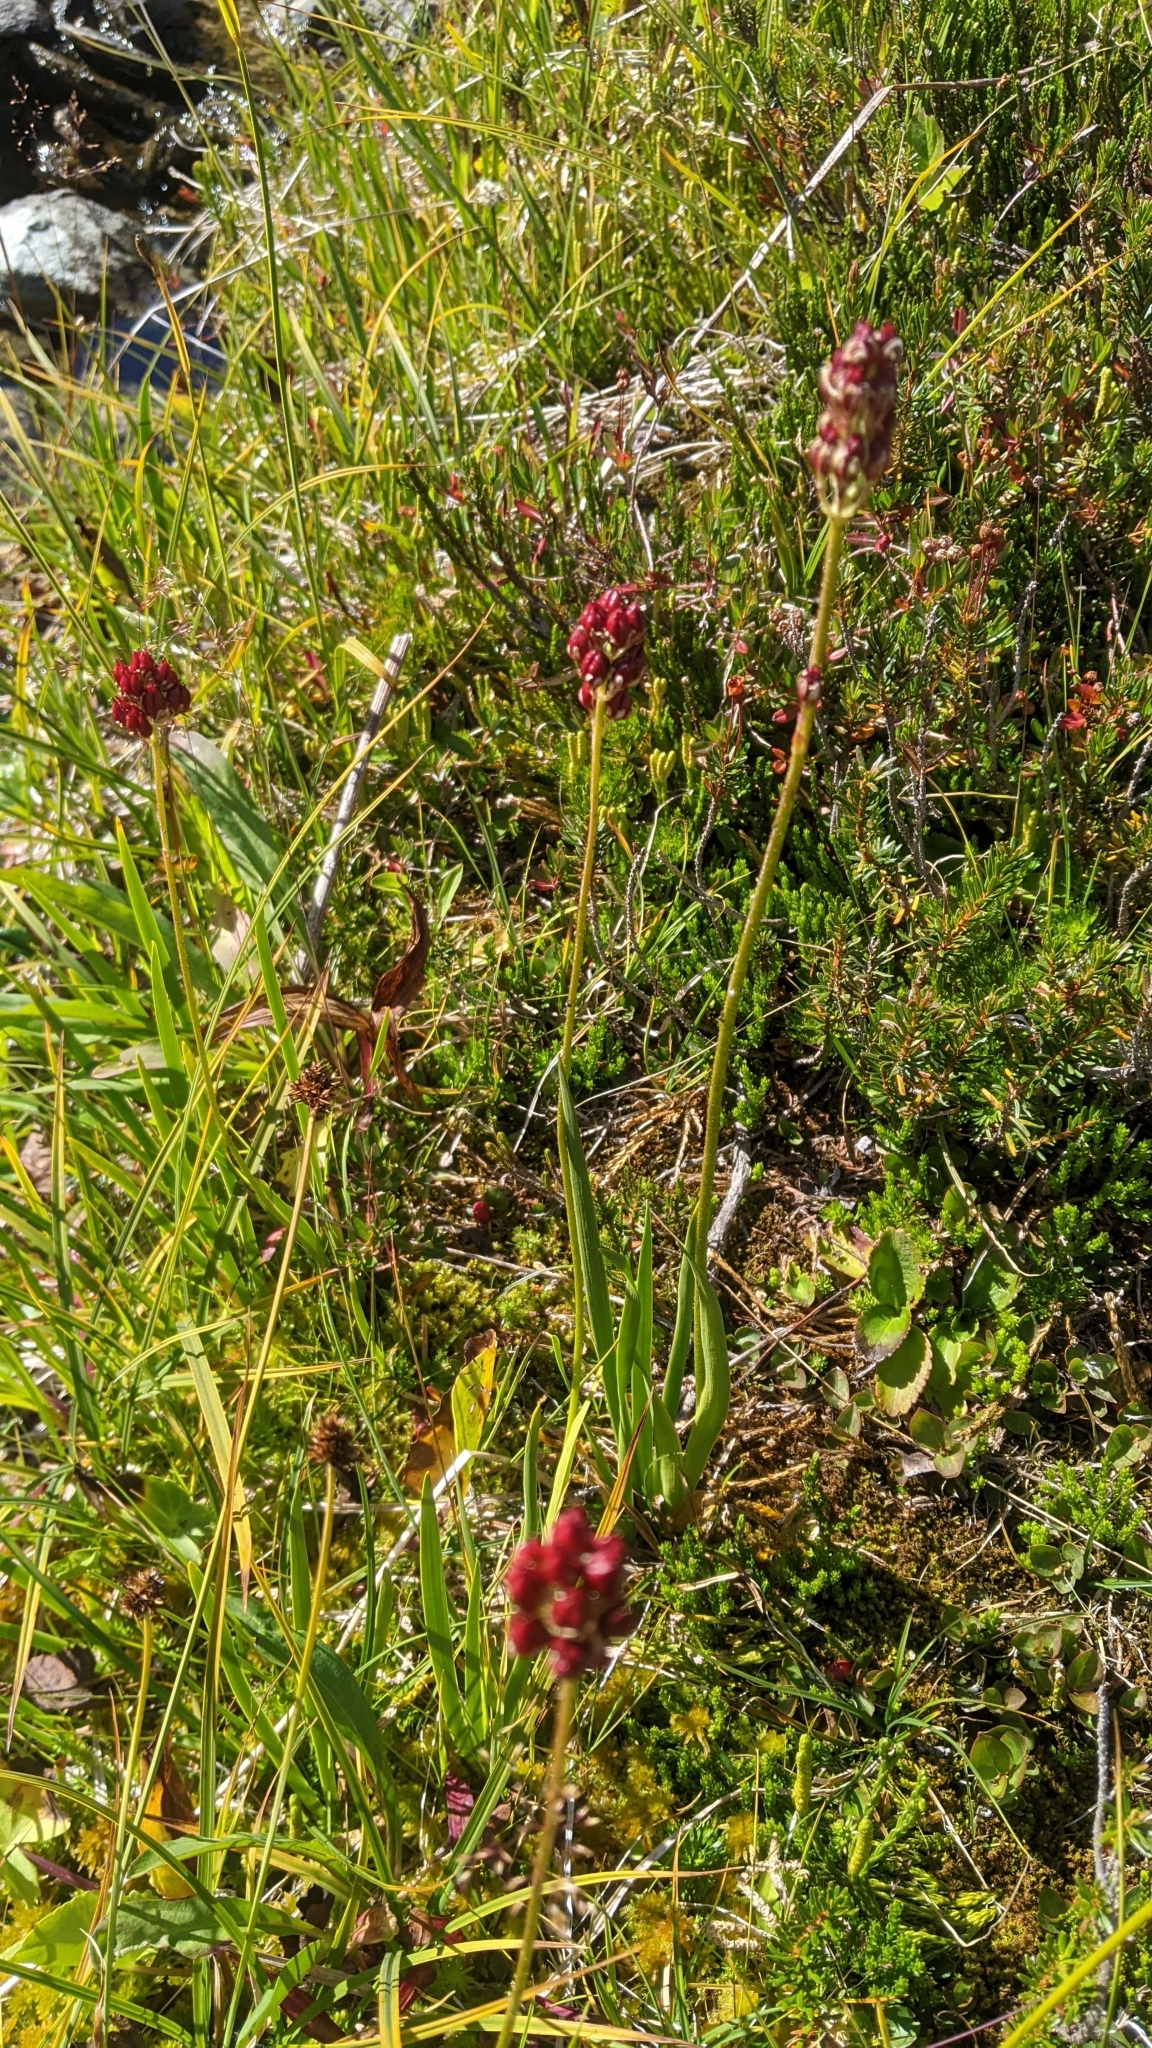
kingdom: Plantae
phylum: Tracheophyta
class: Liliopsida
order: Alismatales
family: Tofieldiaceae
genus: Triantha
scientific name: Triantha glutinosa
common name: Glutinous tofieldia
